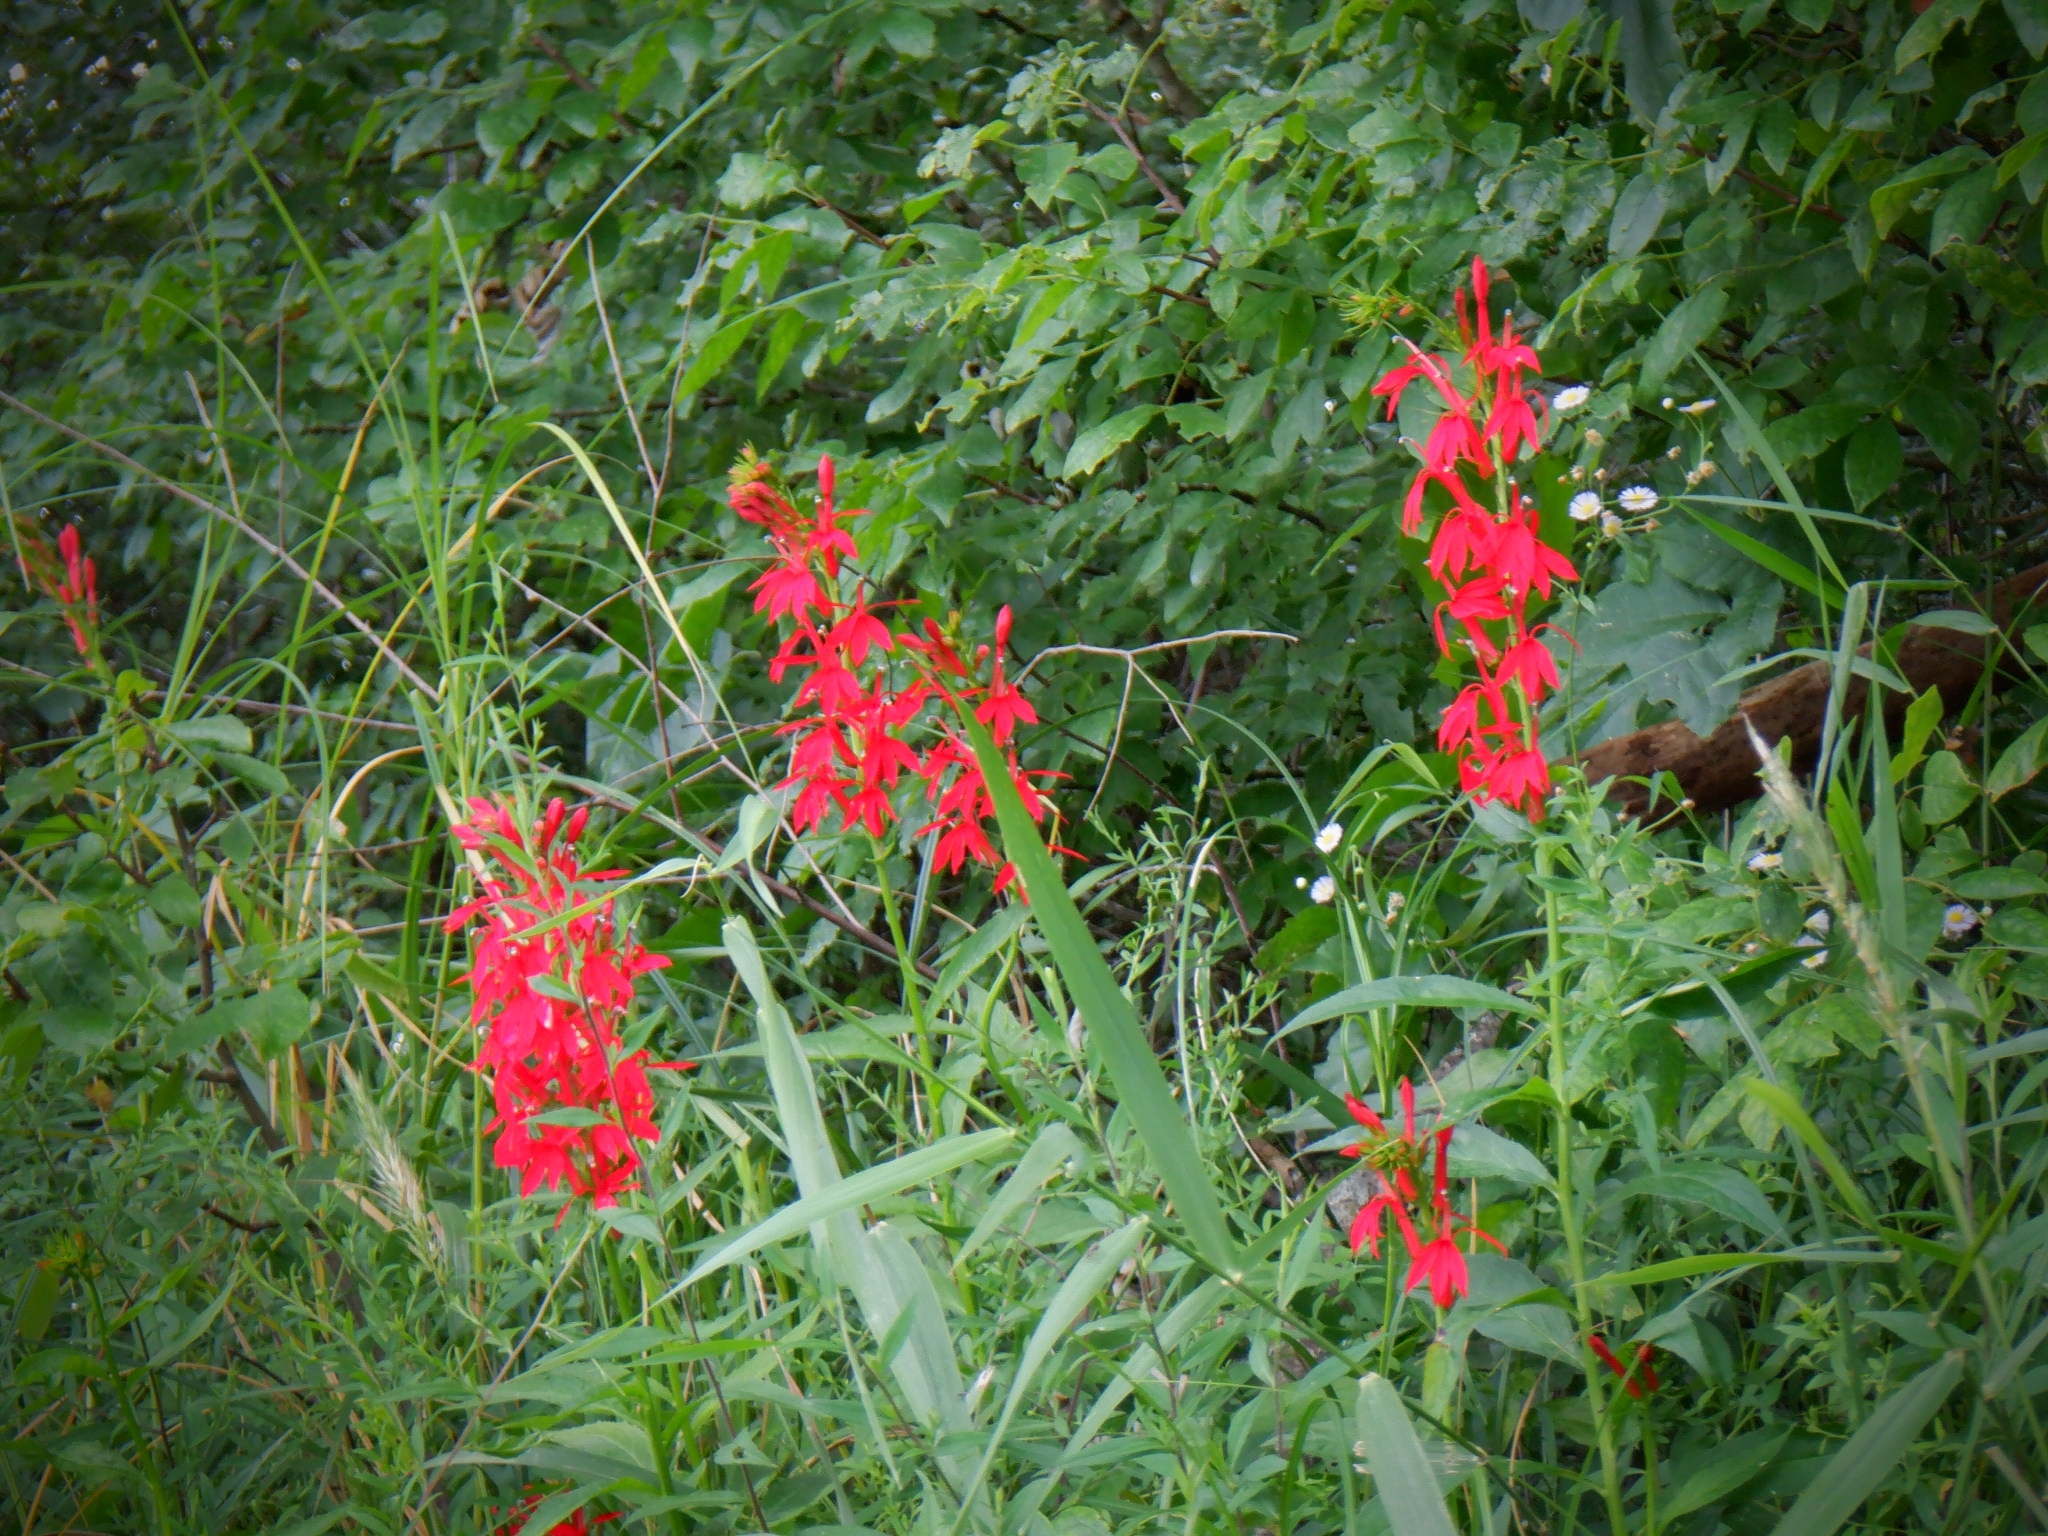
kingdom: Plantae
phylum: Tracheophyta
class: Magnoliopsida
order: Asterales
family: Campanulaceae
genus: Lobelia
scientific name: Lobelia cardinalis
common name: Cardinal flower
